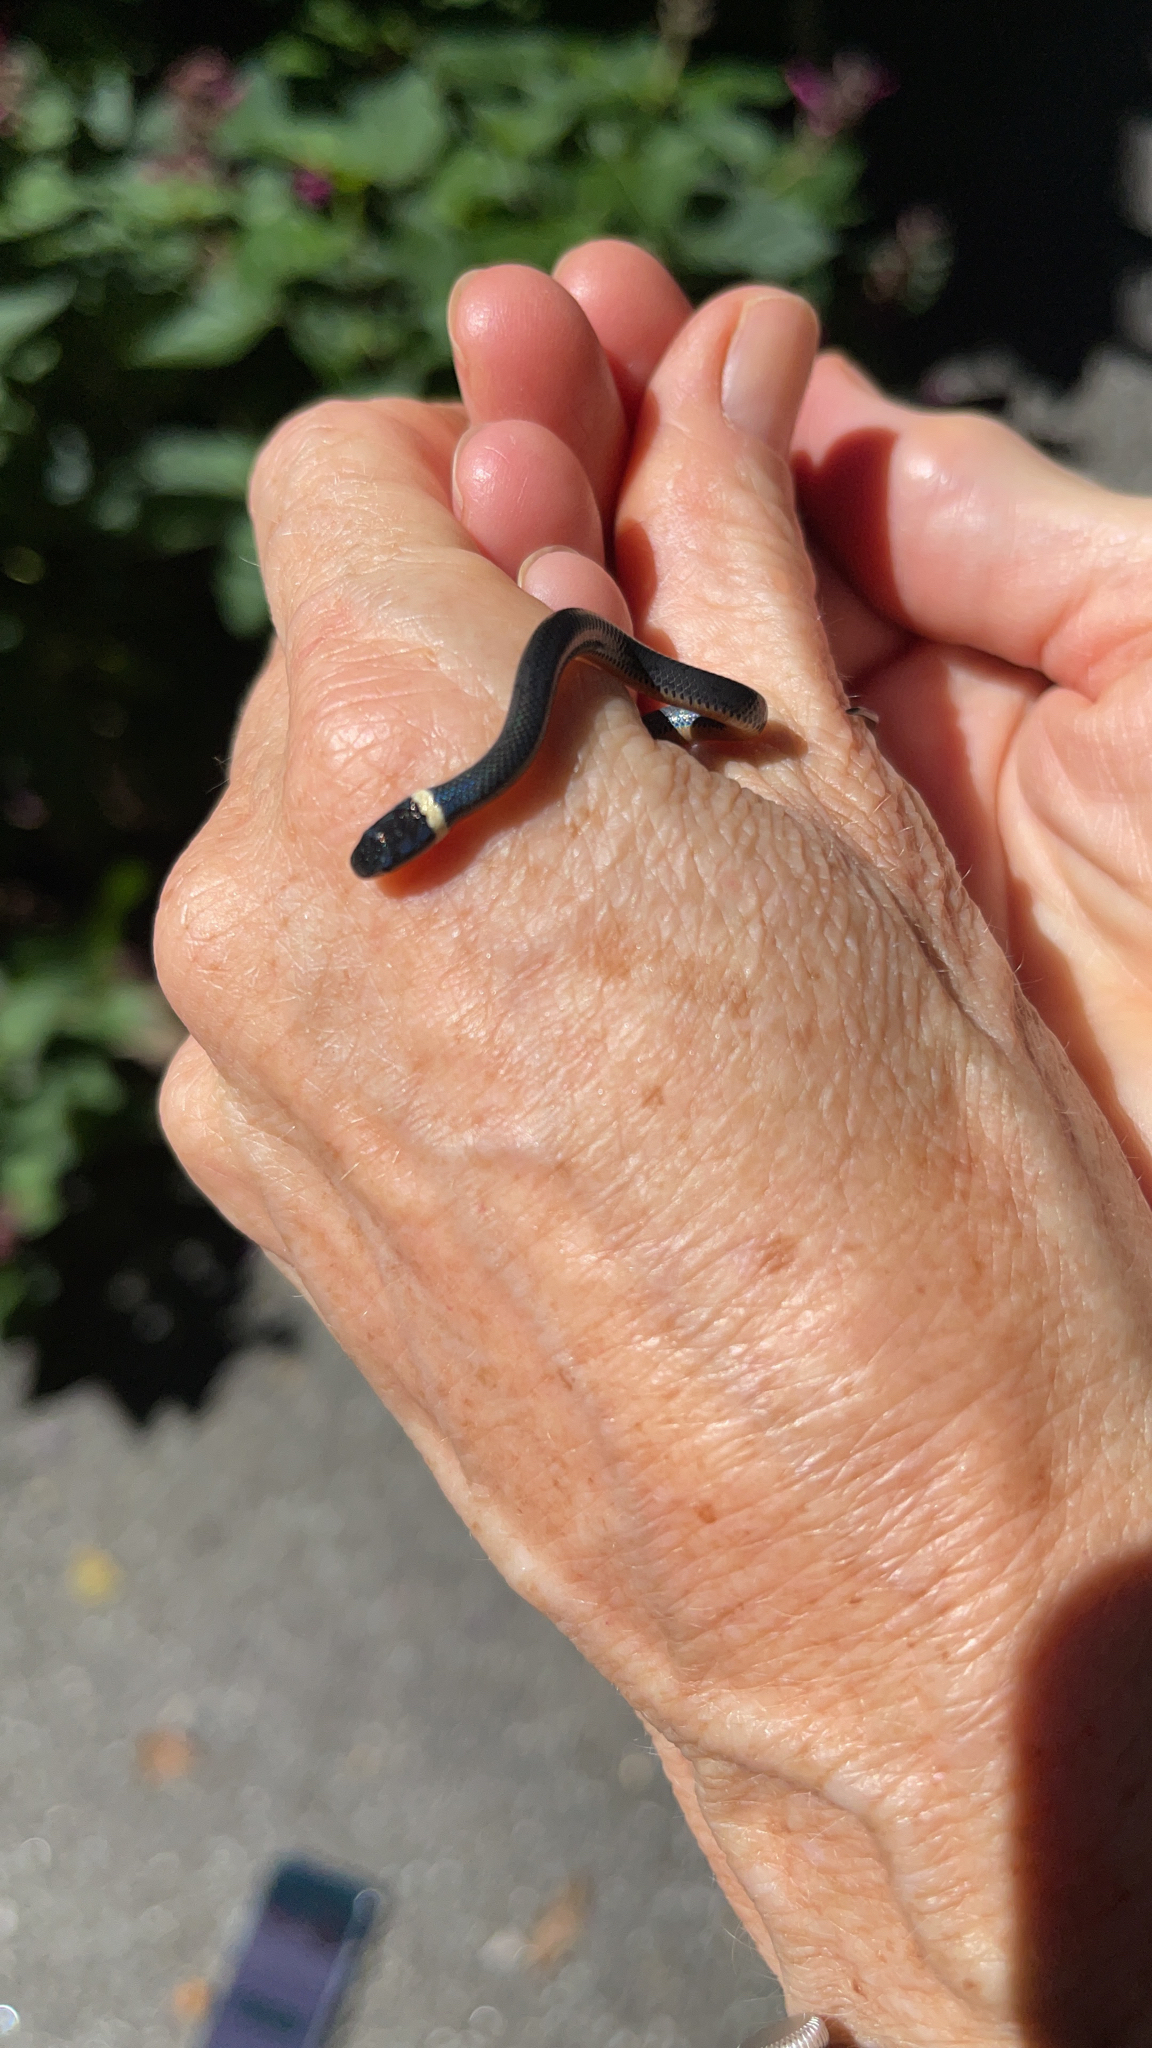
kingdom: Animalia
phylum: Chordata
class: Squamata
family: Colubridae
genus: Diadophis
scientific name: Diadophis punctatus
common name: Ringneck snake
